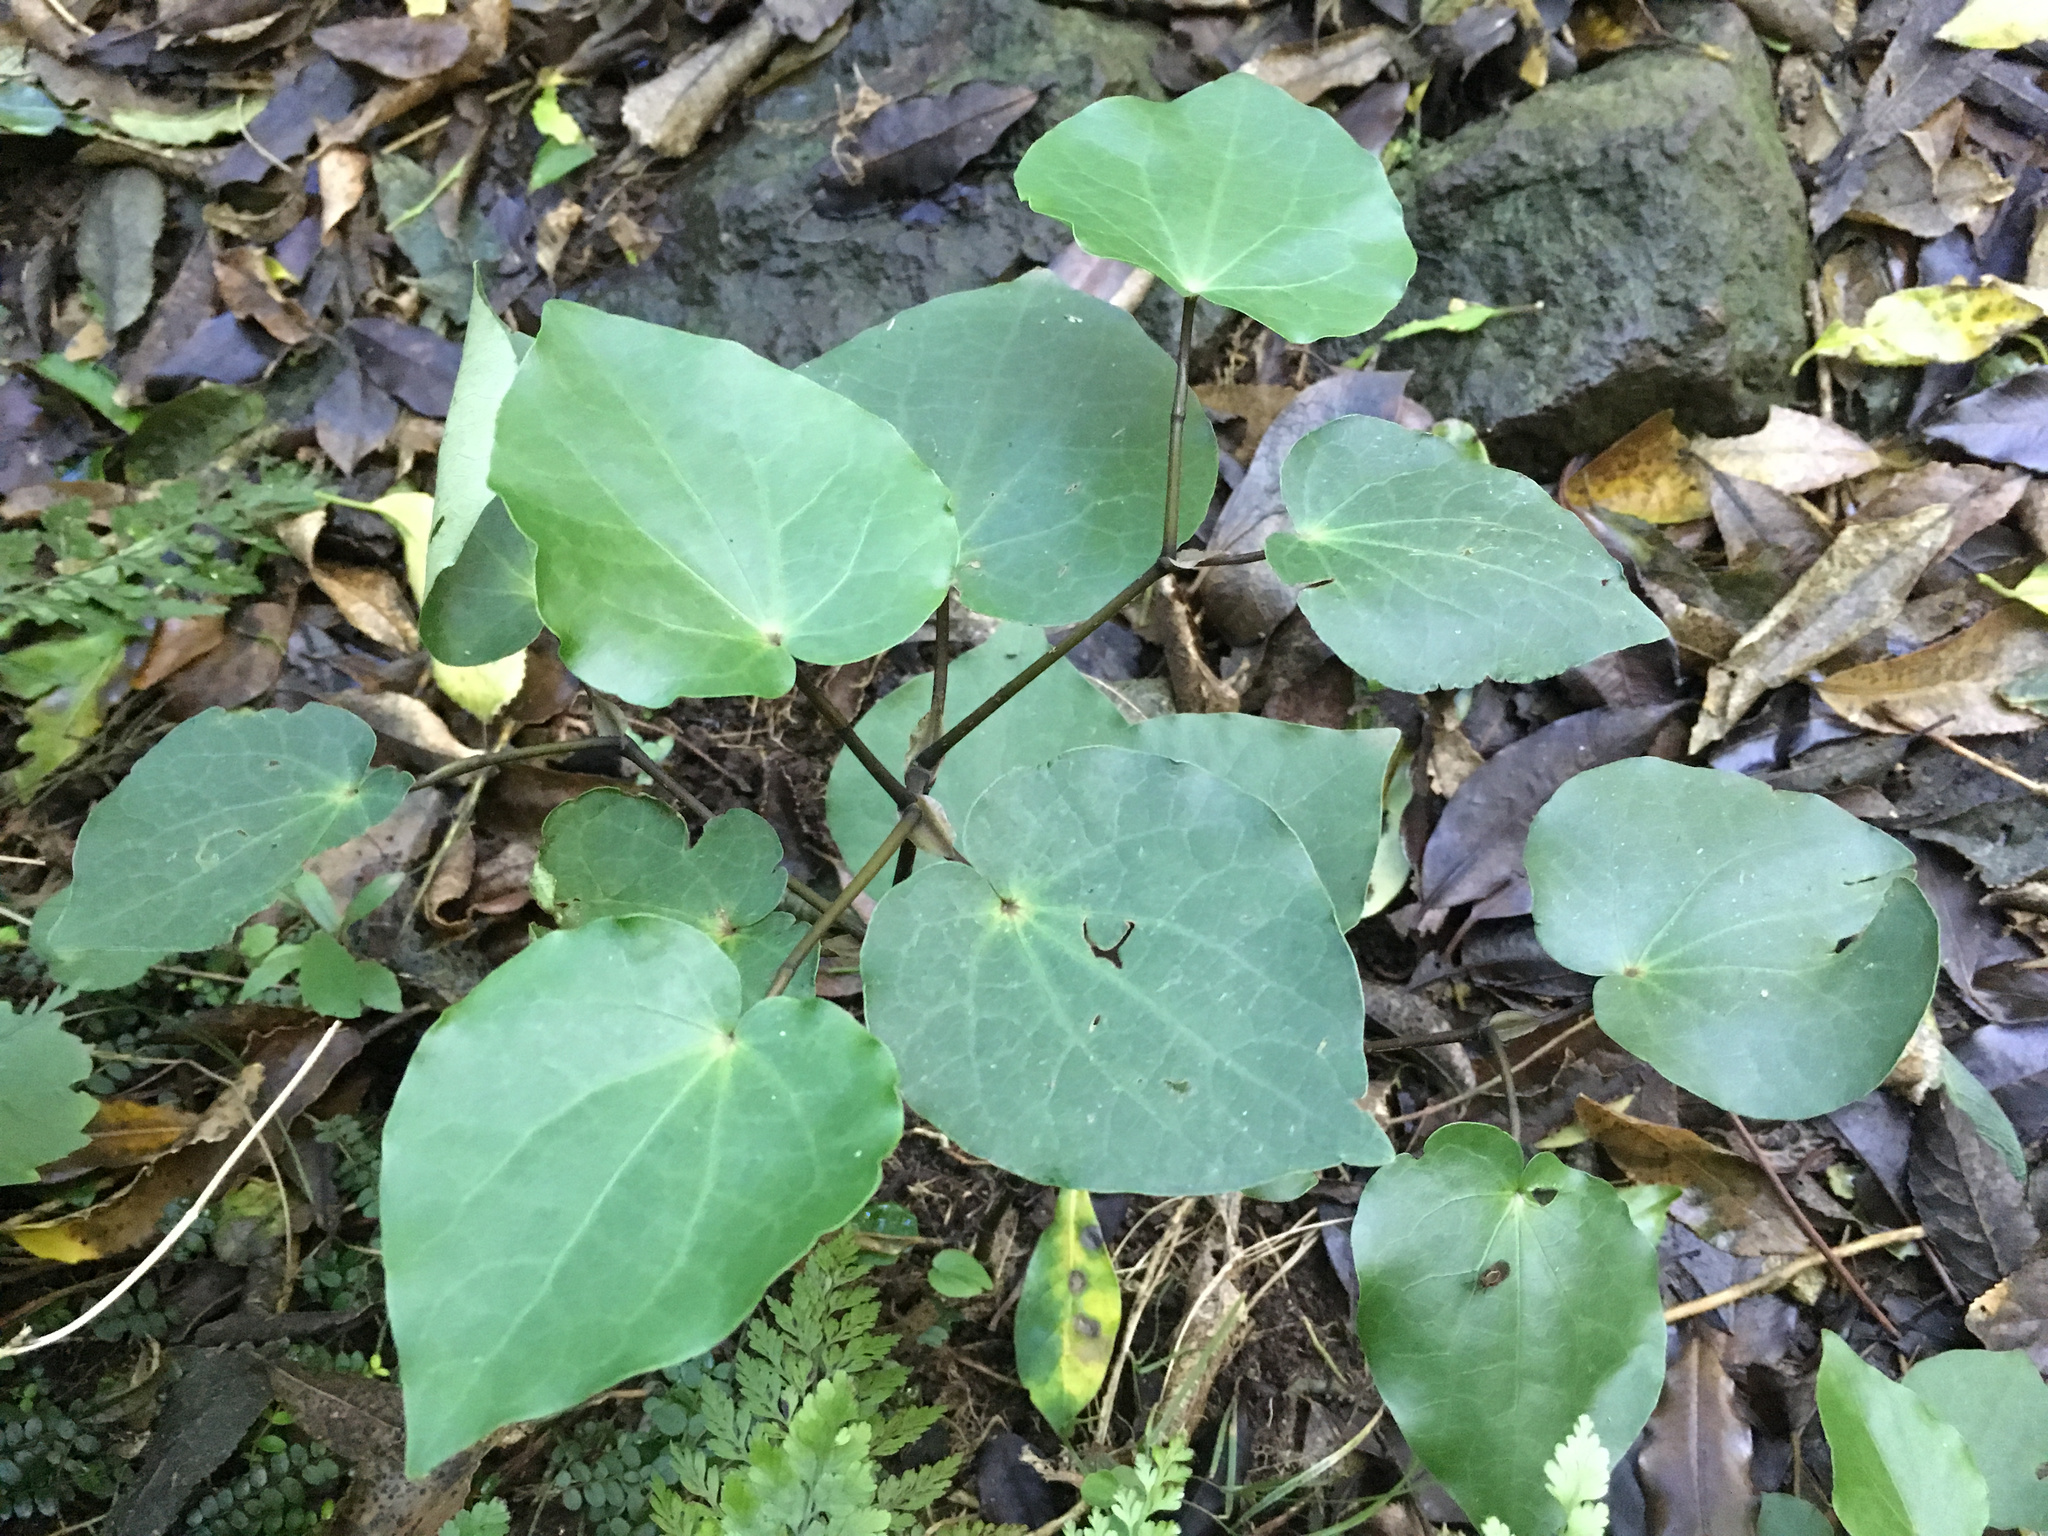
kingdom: Plantae
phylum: Tracheophyta
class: Magnoliopsida
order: Piperales
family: Piperaceae
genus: Macropiper
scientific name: Macropiper excelsum
